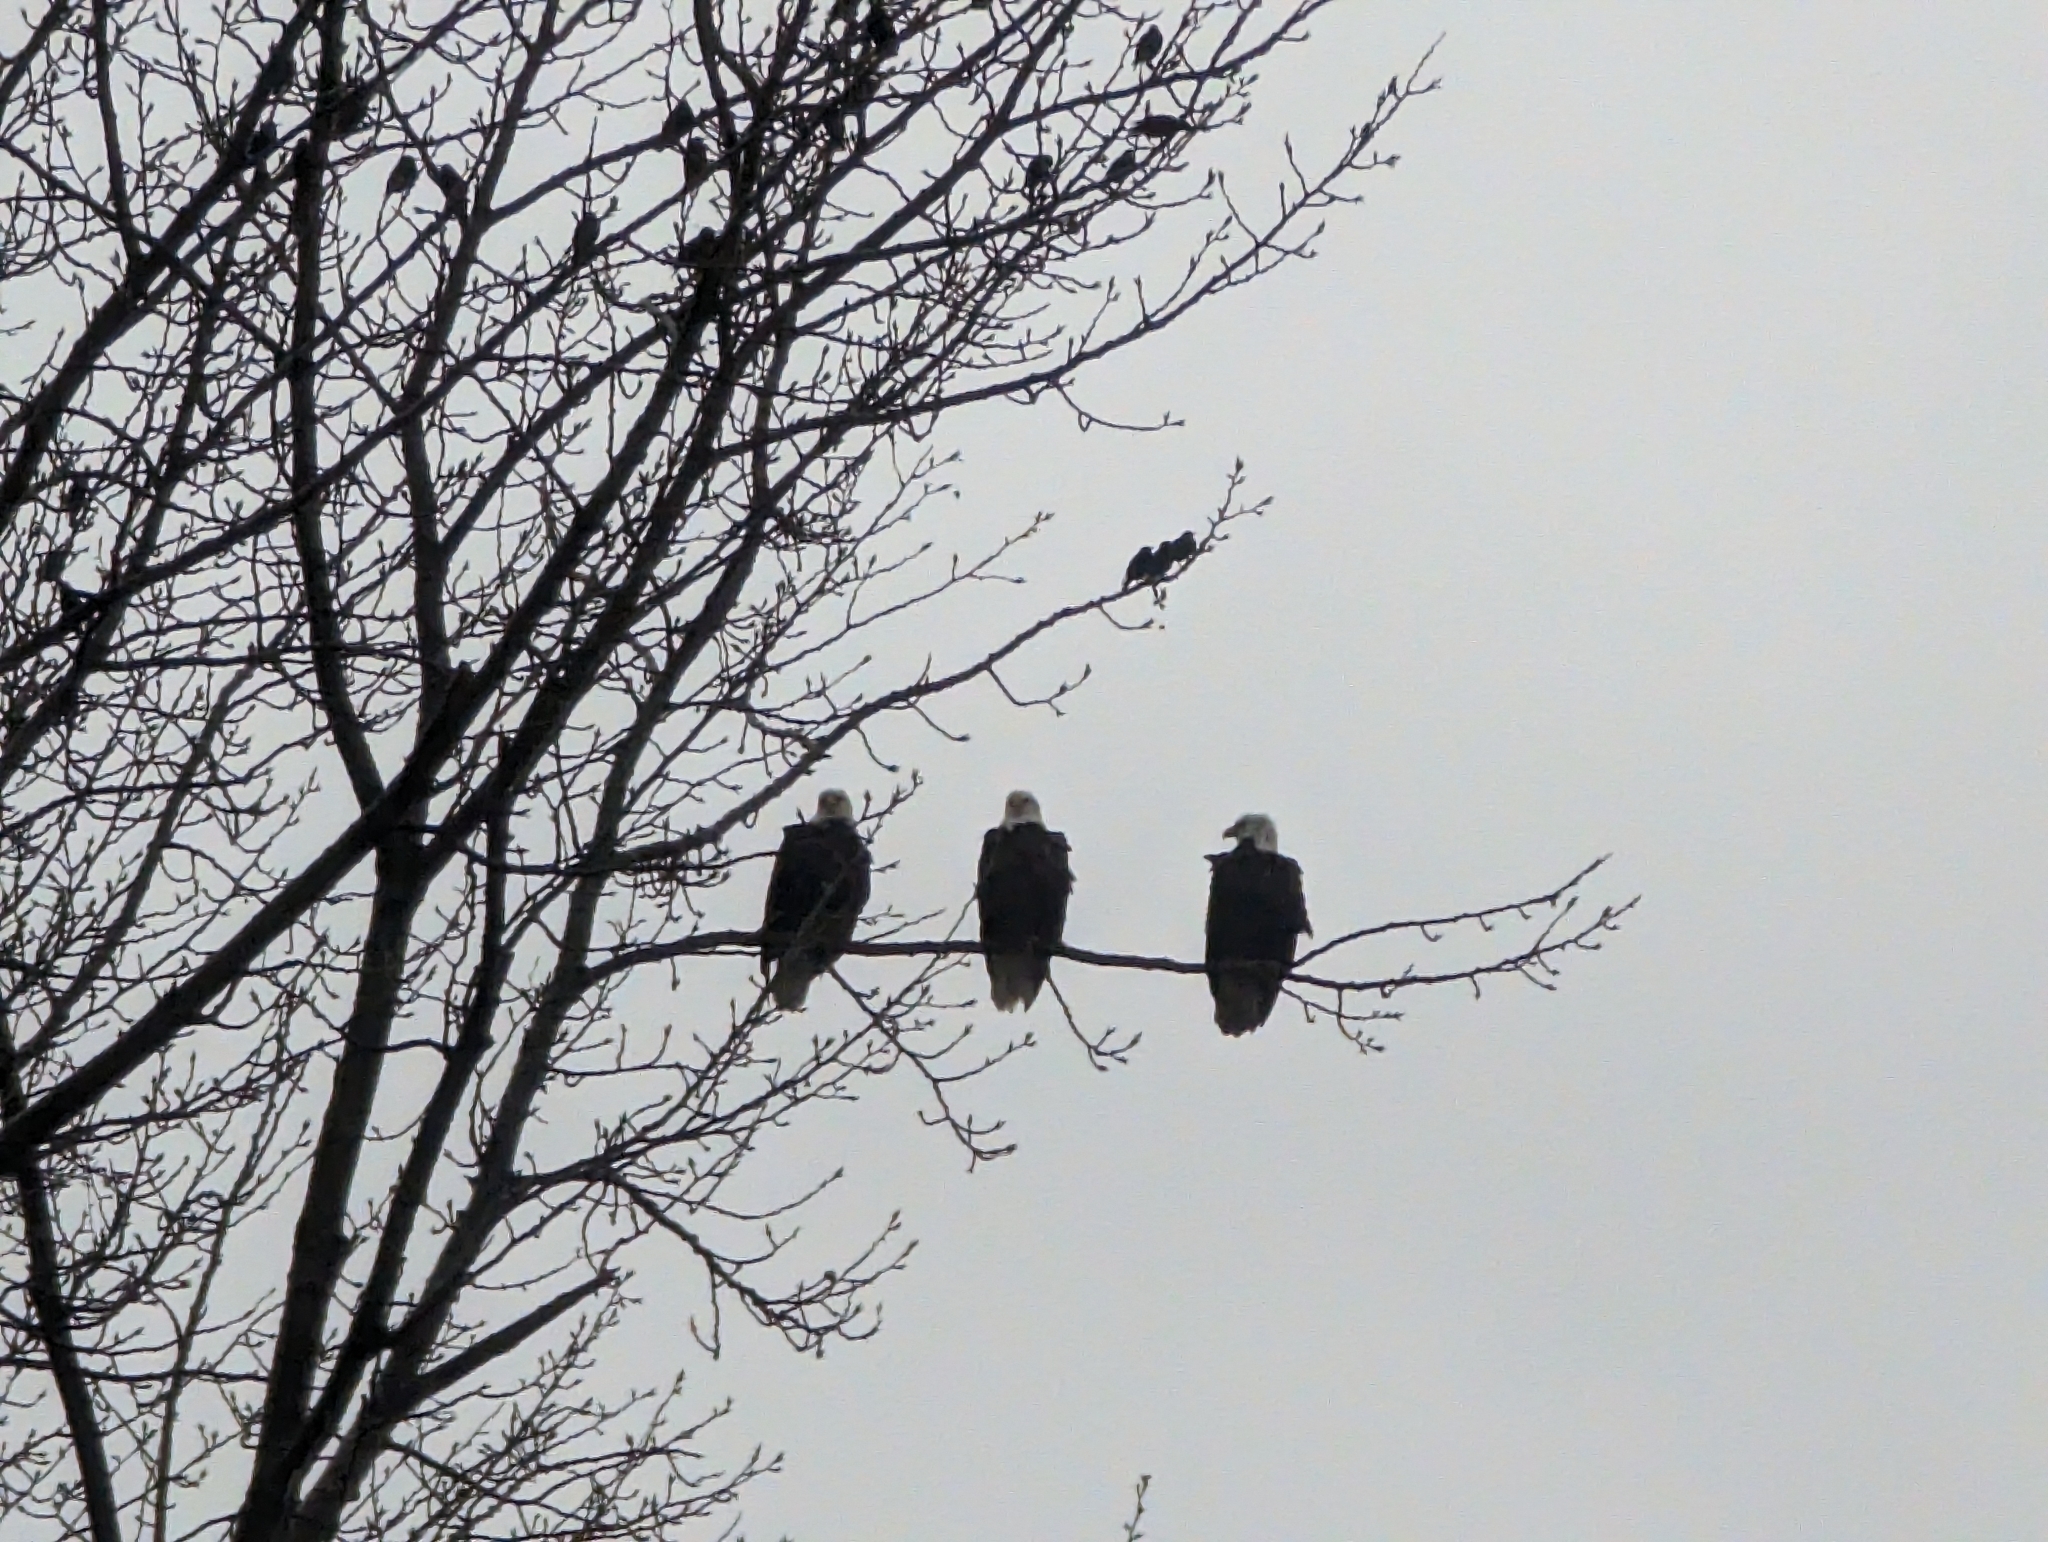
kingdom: Animalia
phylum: Chordata
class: Aves
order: Accipitriformes
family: Accipitridae
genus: Haliaeetus
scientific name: Haliaeetus leucocephalus
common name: Bald eagle
